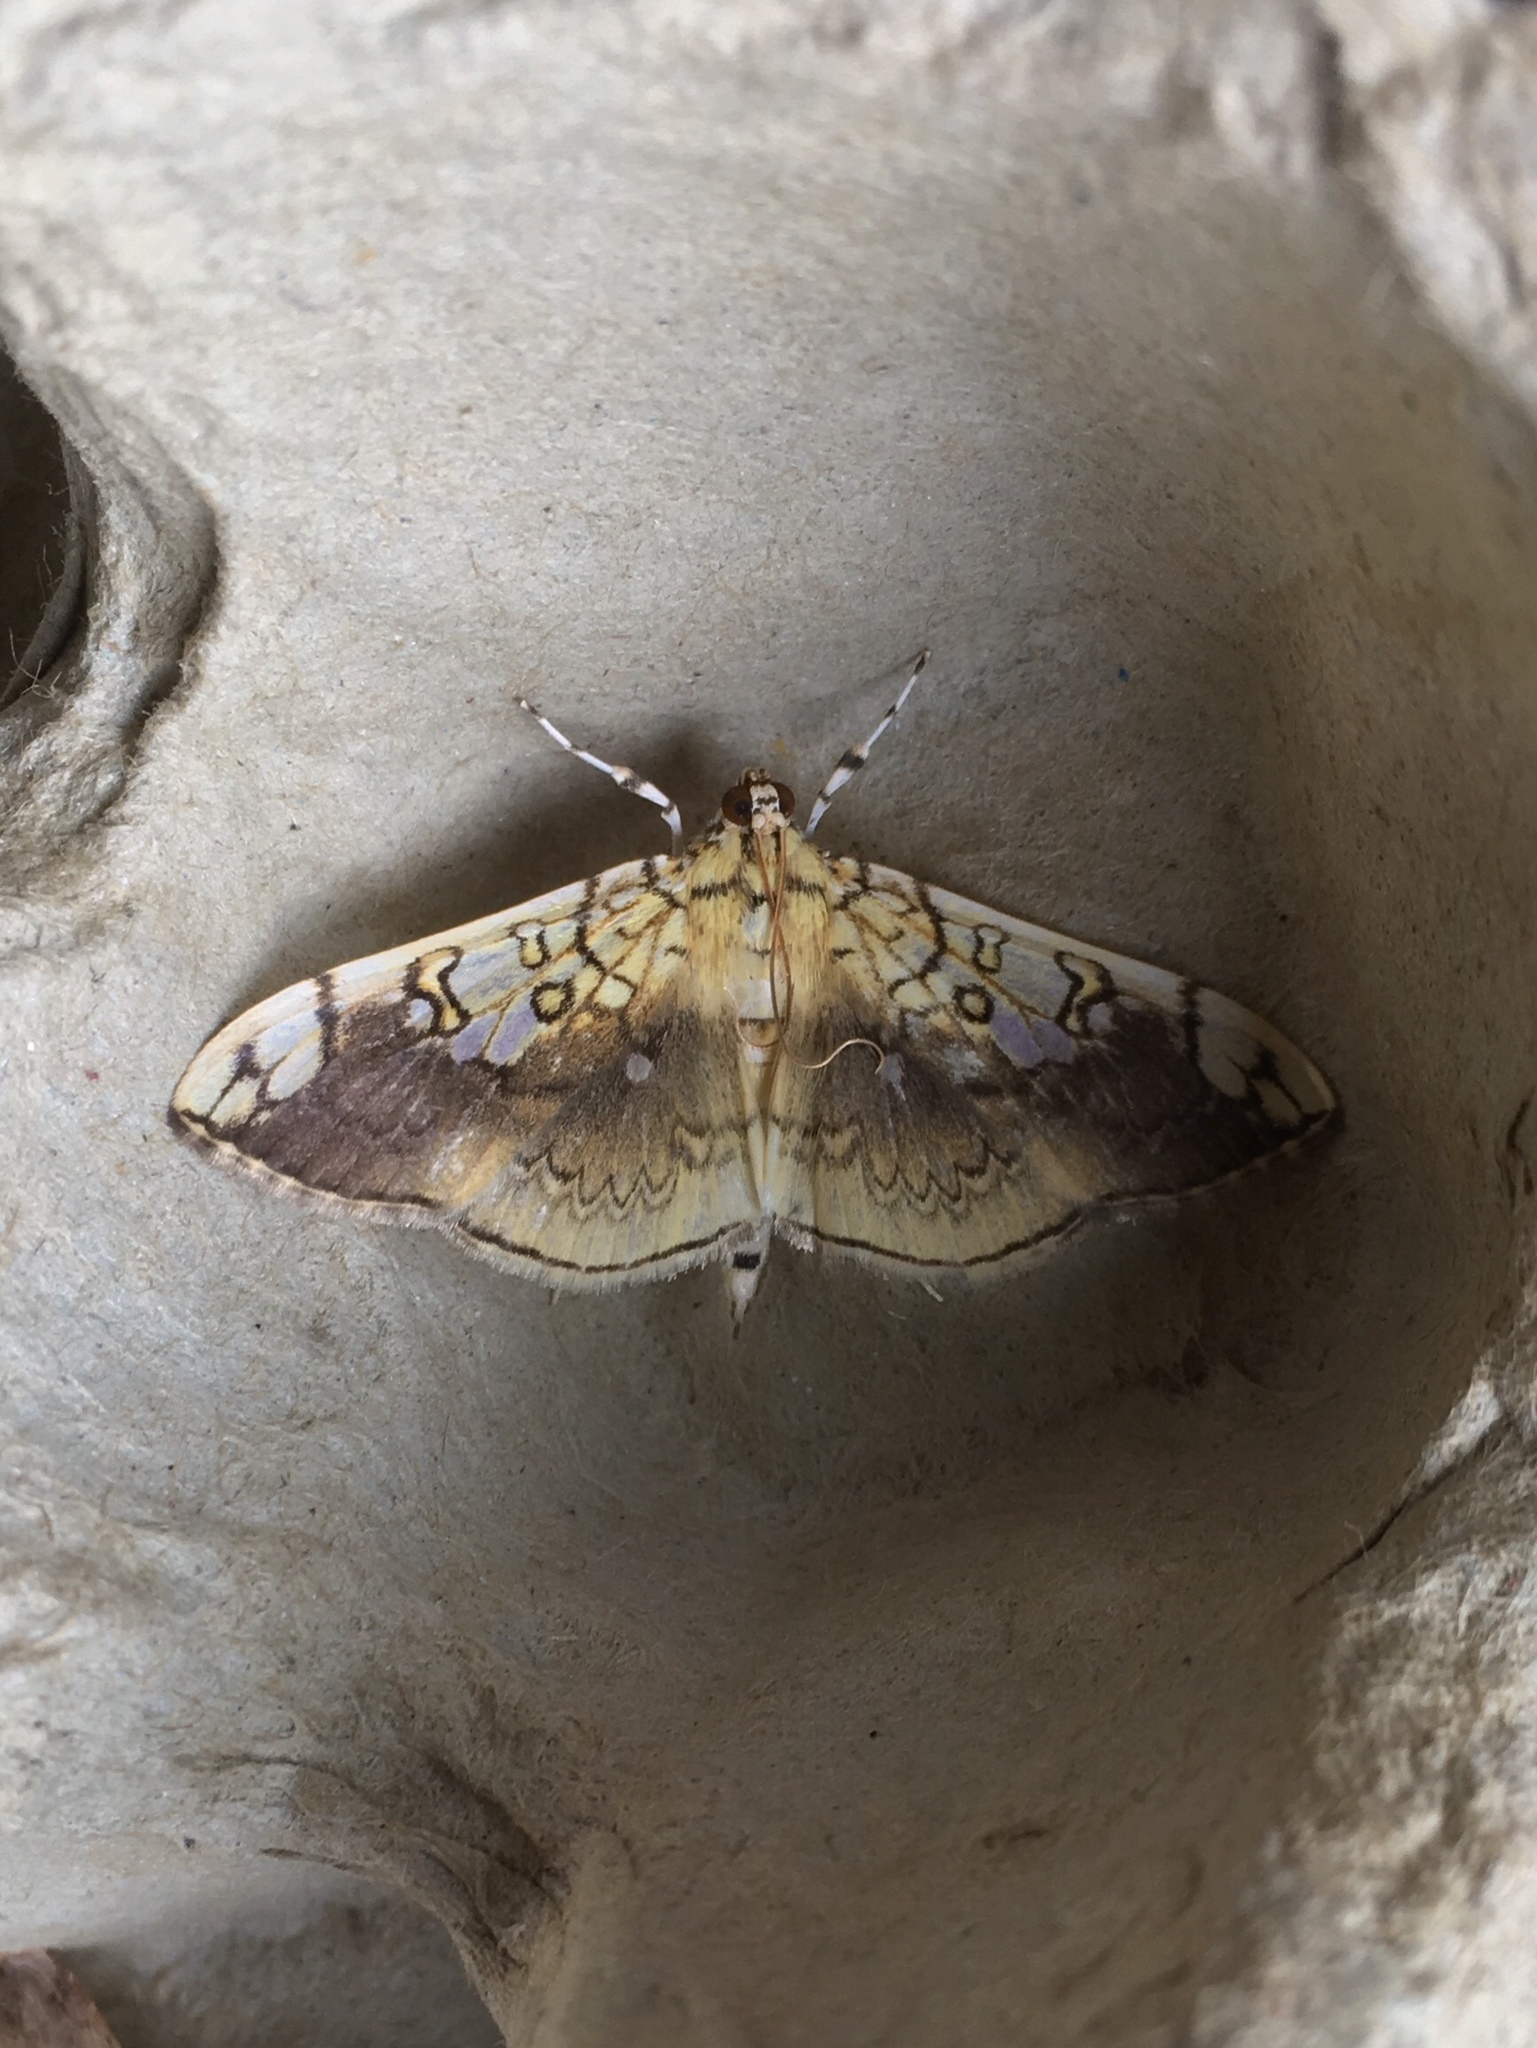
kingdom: Animalia
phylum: Arthropoda
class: Insecta
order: Lepidoptera
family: Crambidae
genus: Pantographa
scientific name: Pantographa limata
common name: Basswood leafroller moth
